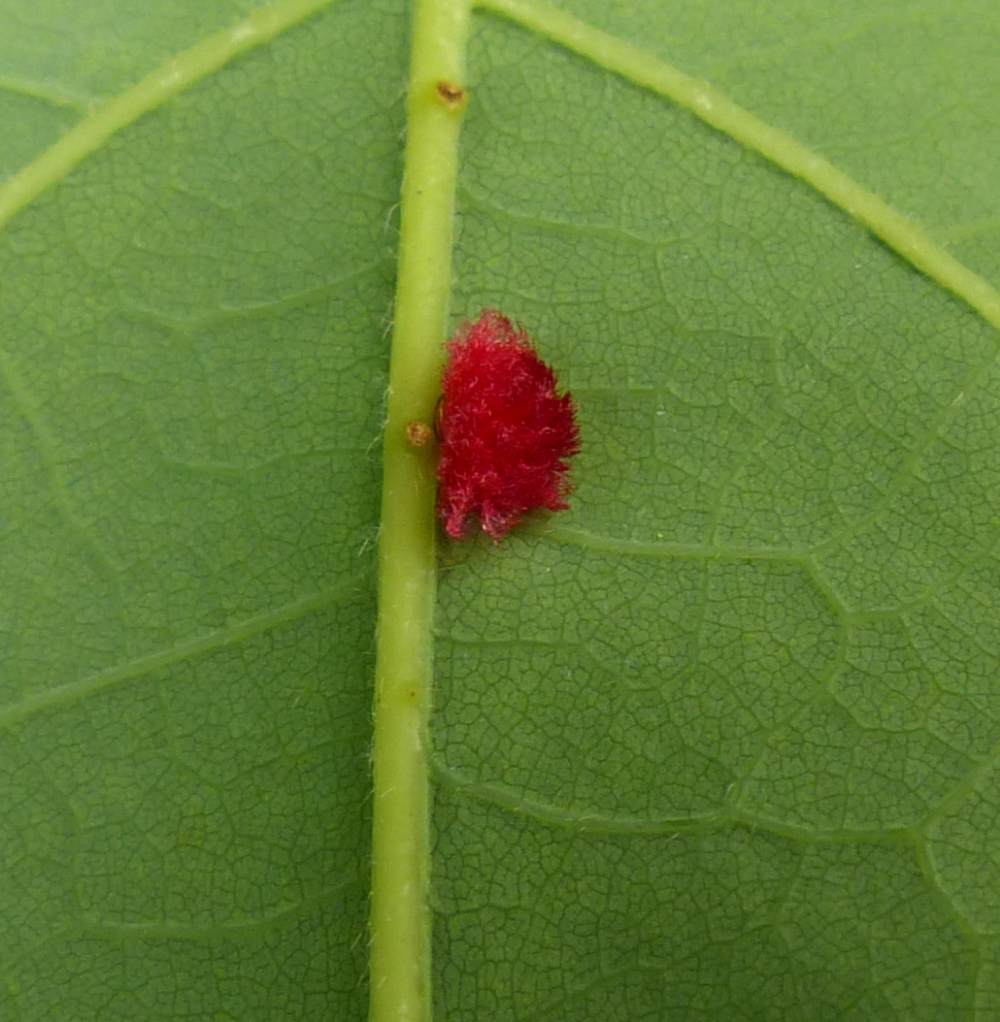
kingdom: Animalia
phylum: Arthropoda
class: Insecta
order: Hymenoptera
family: Cynipidae
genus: Andricus
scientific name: Andricus Druon ignotum
